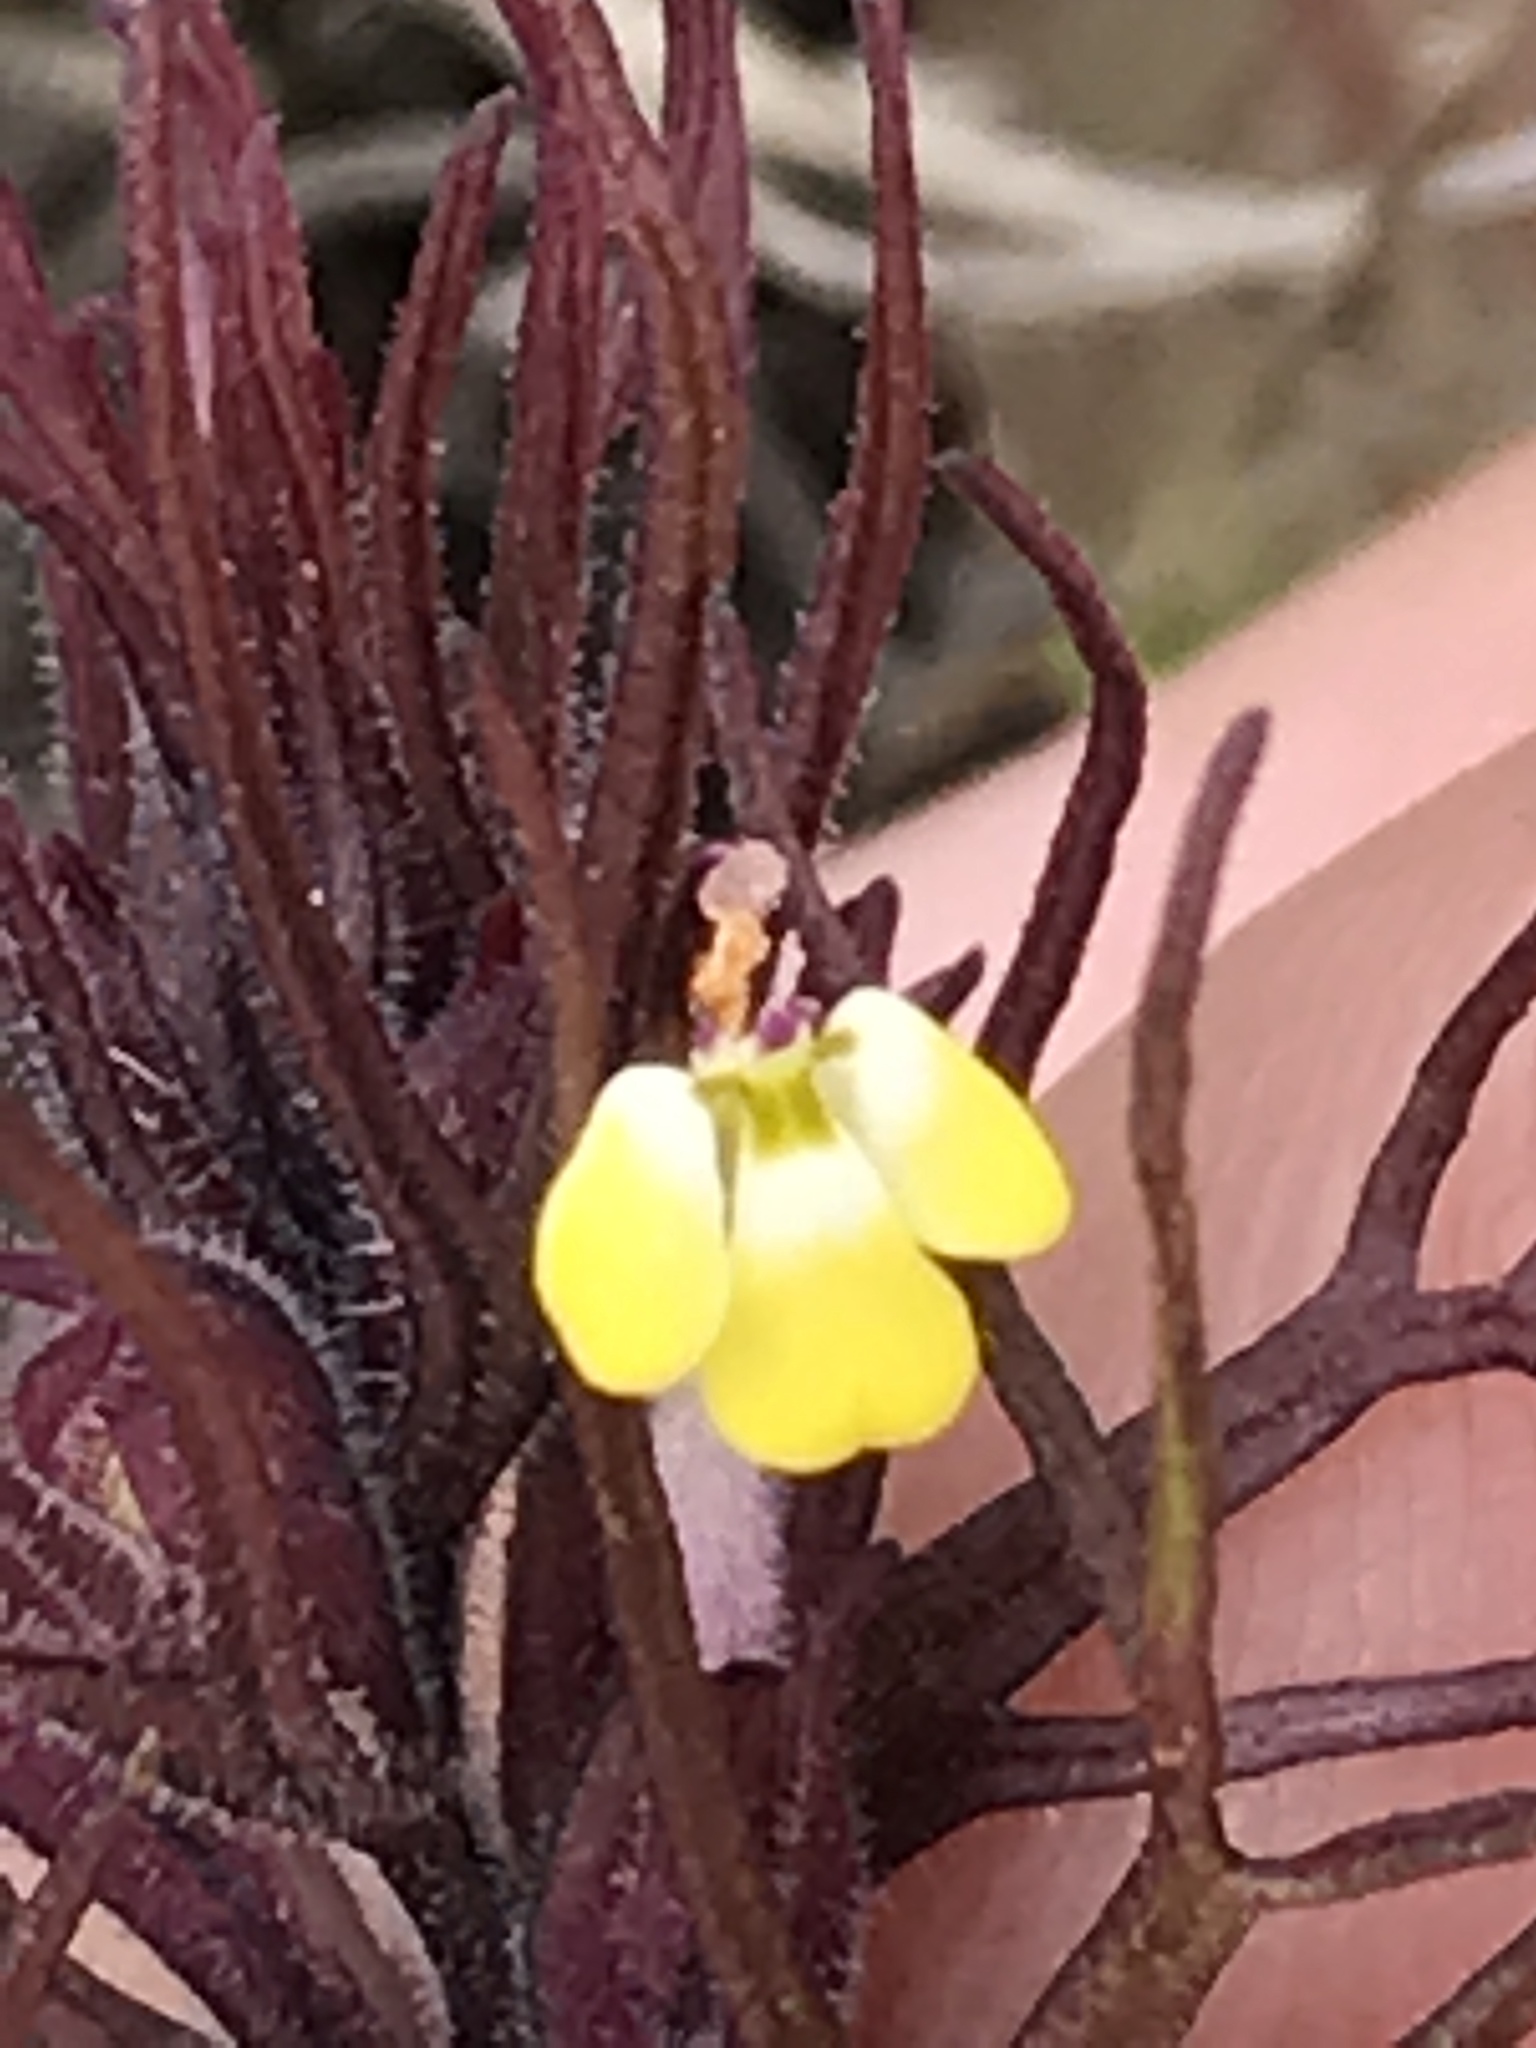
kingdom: Plantae
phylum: Tracheophyta
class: Magnoliopsida
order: Lamiales
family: Orobanchaceae
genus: Triphysaria
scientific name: Triphysaria micrantha
